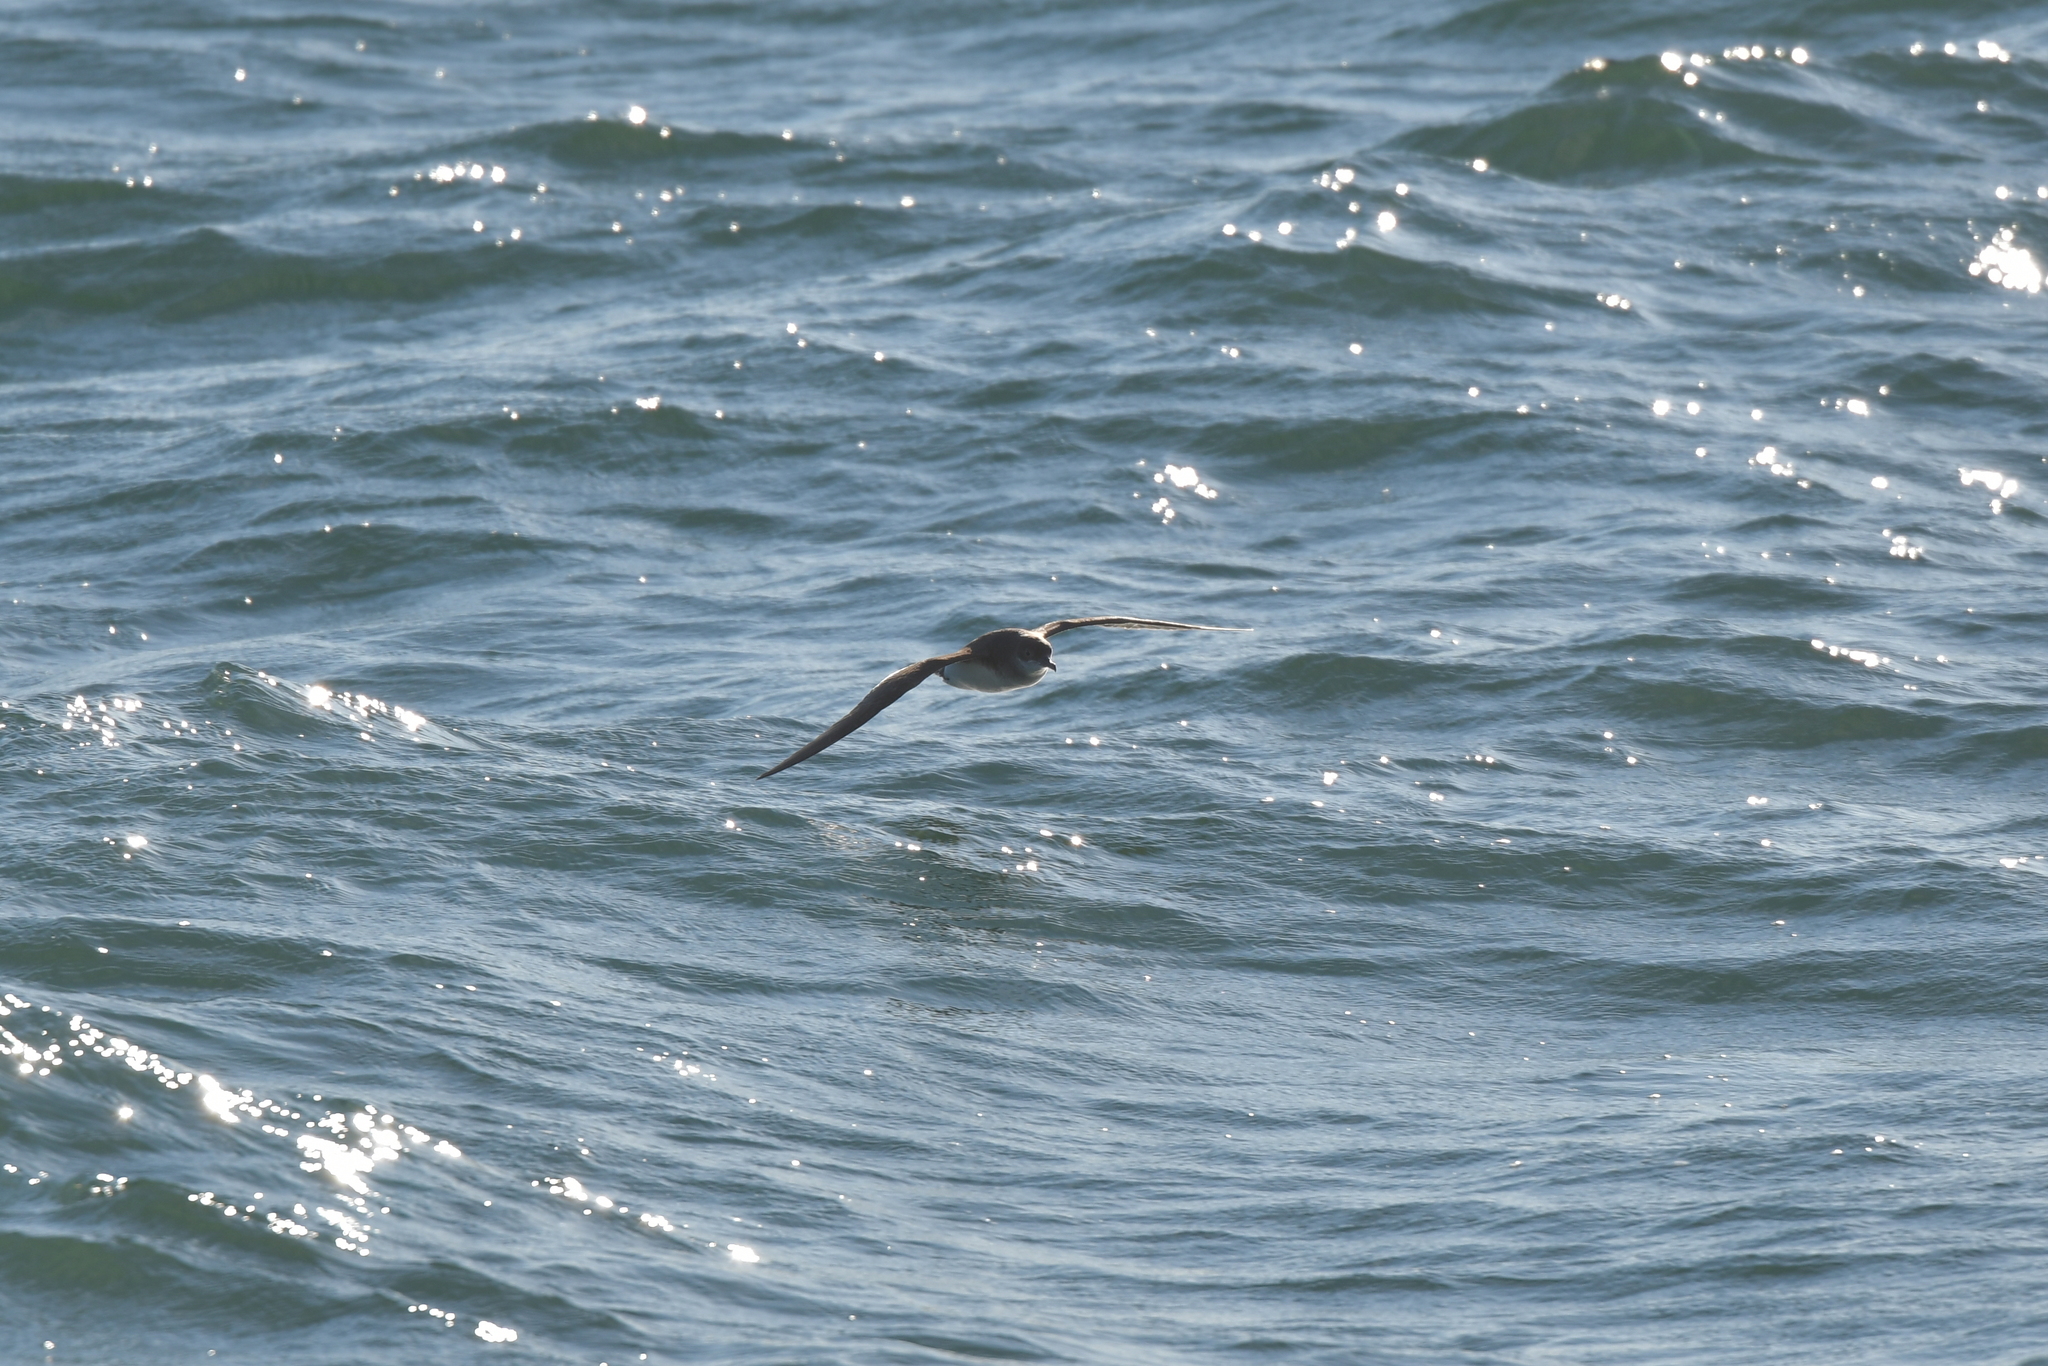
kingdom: Animalia
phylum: Chordata
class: Aves
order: Procellariiformes
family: Procellariidae
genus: Puffinus
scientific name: Puffinus gavia
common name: Fluttering shearwater
